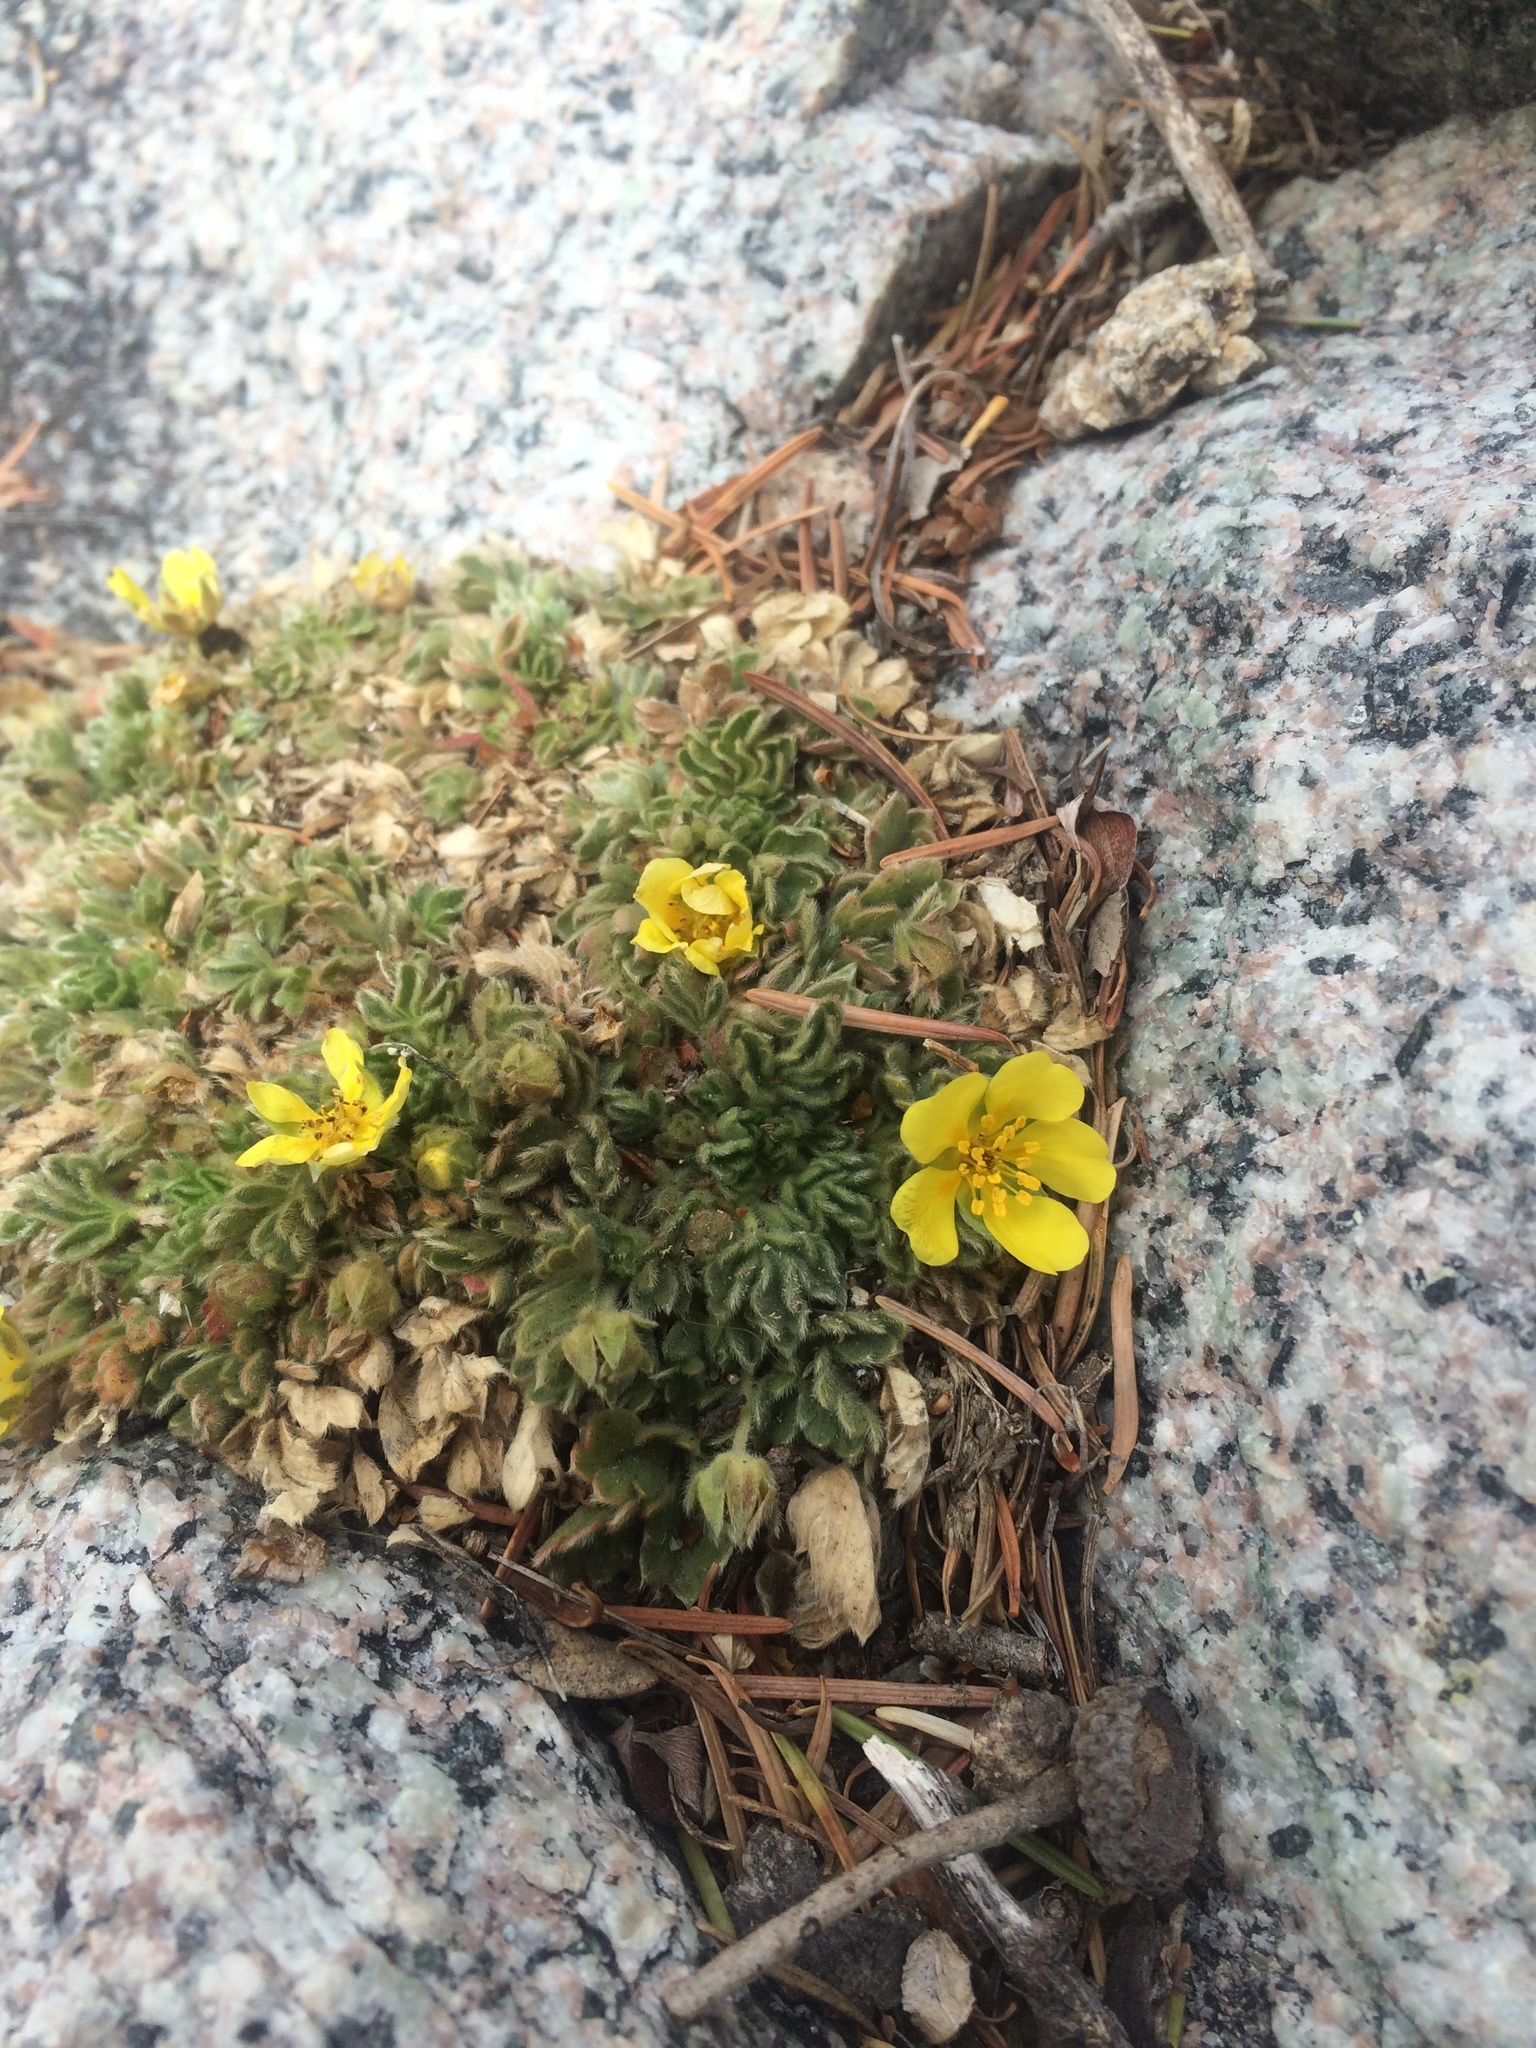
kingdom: Plantae
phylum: Tracheophyta
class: Magnoliopsida
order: Rosales
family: Rosaceae
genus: Potentilla
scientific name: Potentilla rhyolitica
